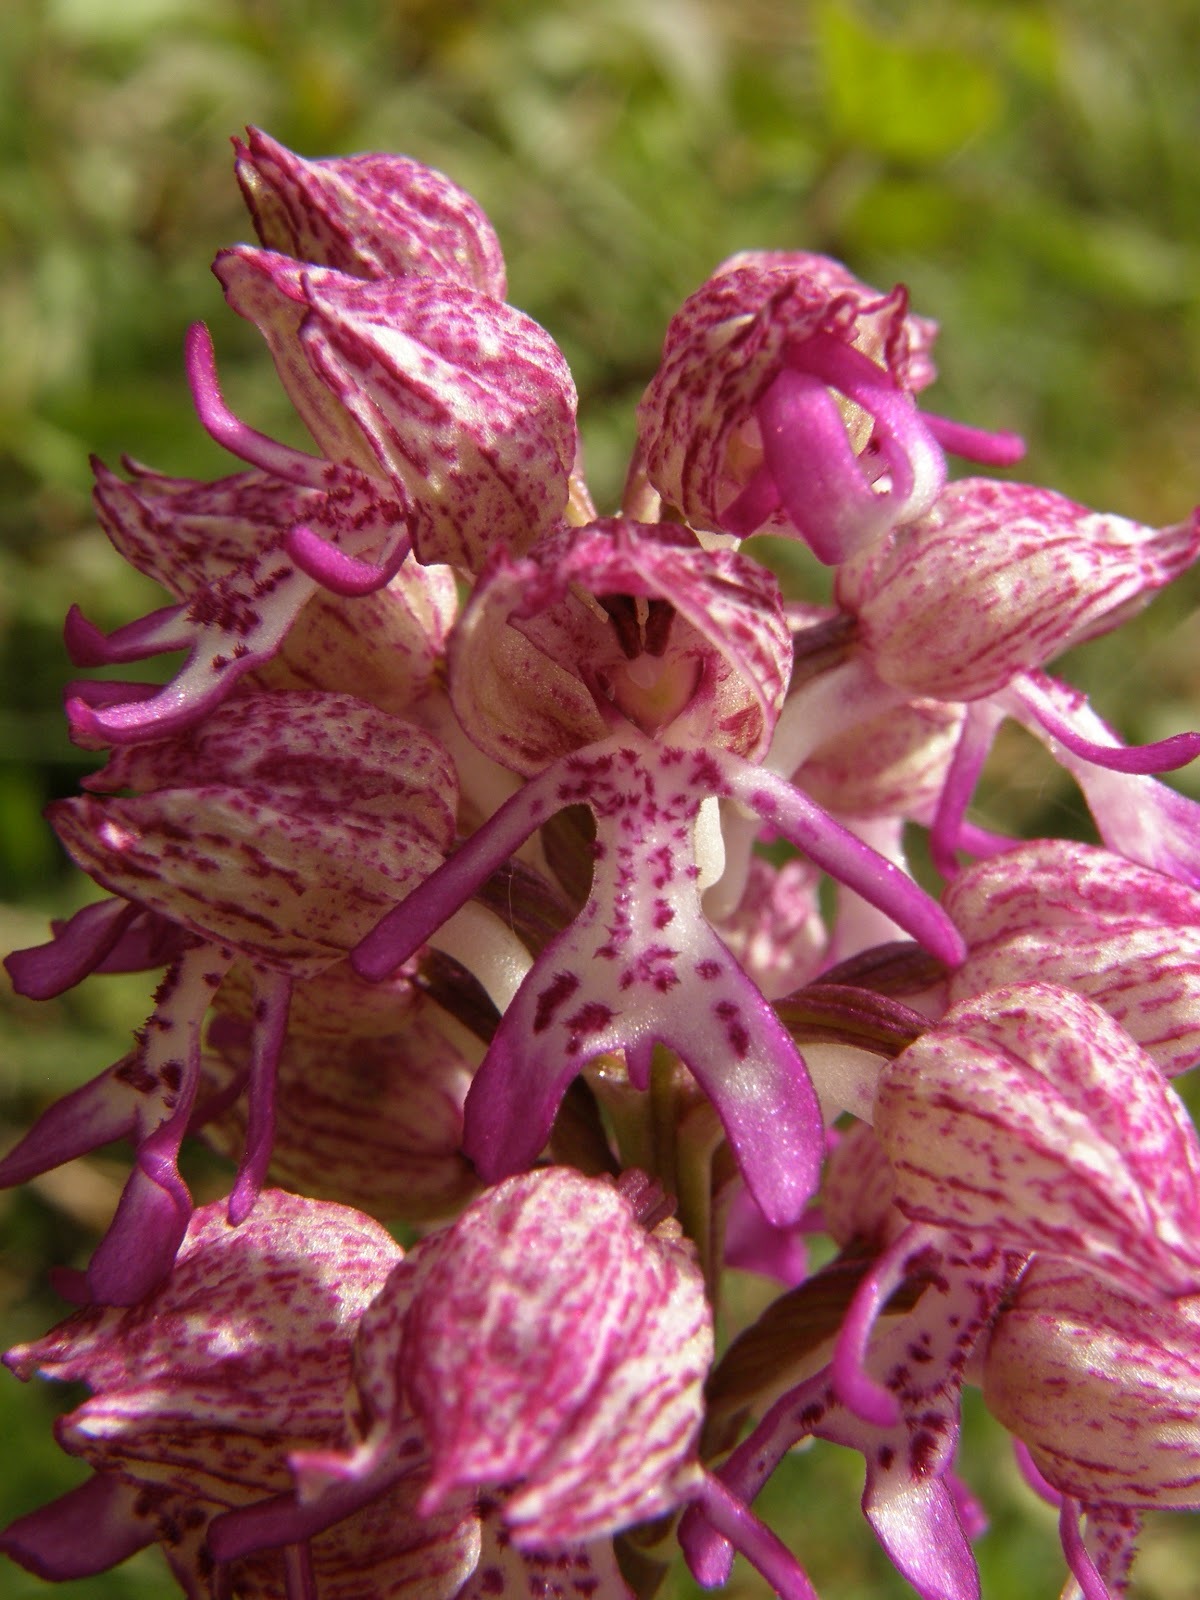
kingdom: Plantae
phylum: Tracheophyta
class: Liliopsida
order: Asparagales
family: Orchidaceae
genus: Orchis
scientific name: Orchis angusticruris
